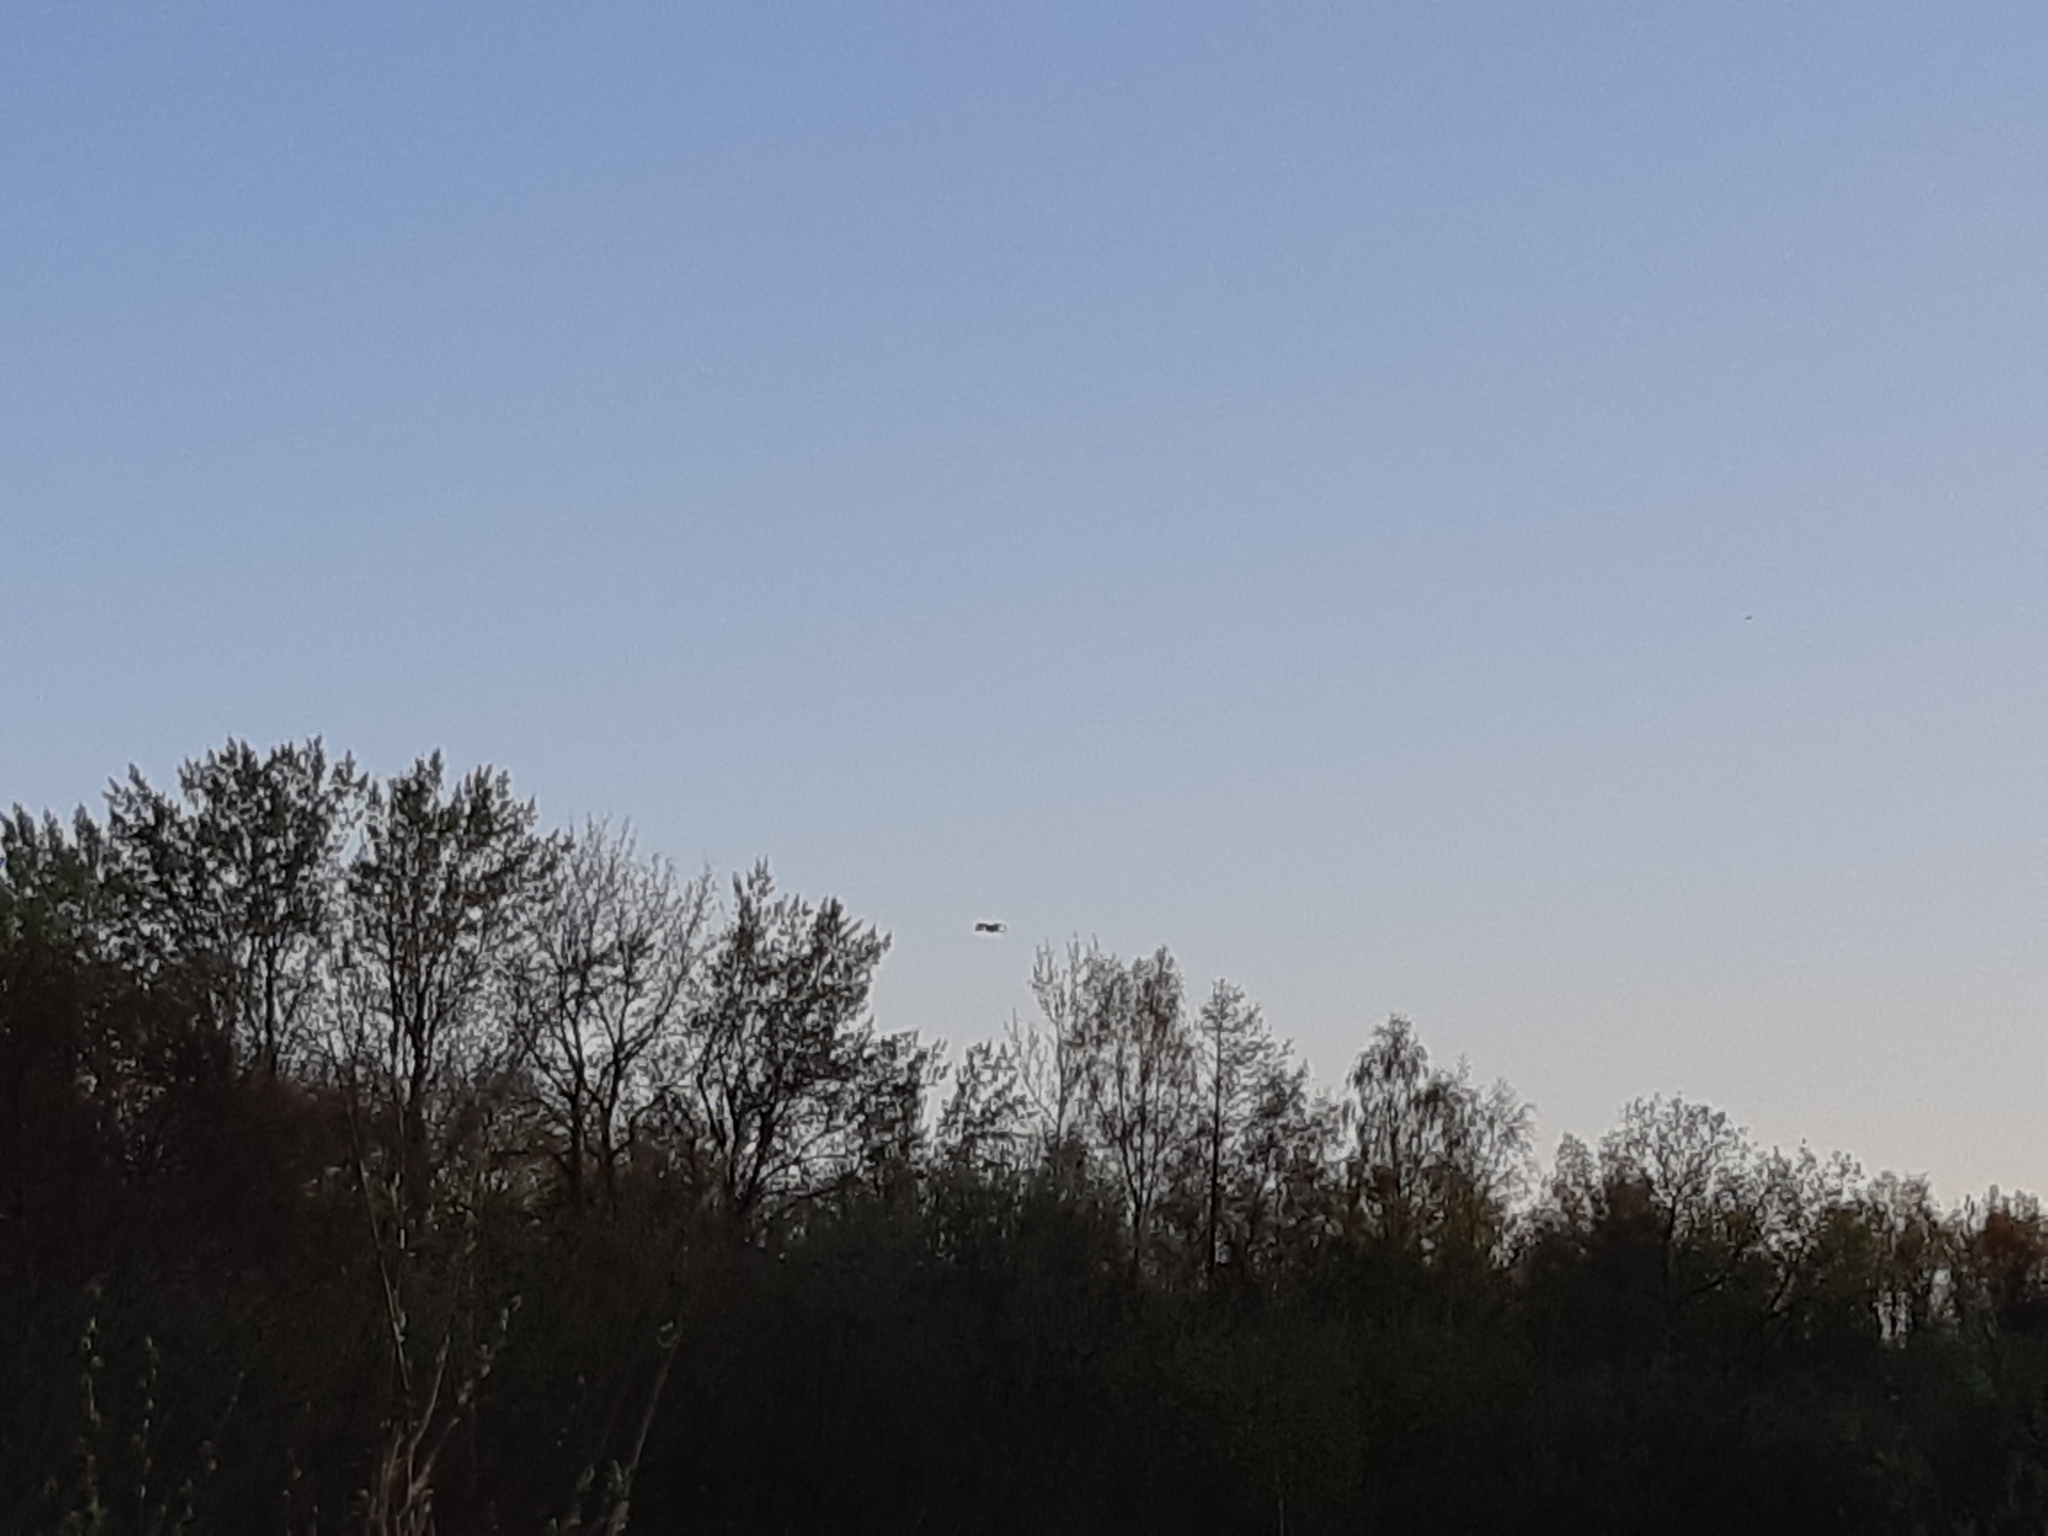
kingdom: Animalia
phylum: Chordata
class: Aves
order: Gruiformes
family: Gruidae
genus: Grus
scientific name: Grus grus
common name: Common crane
